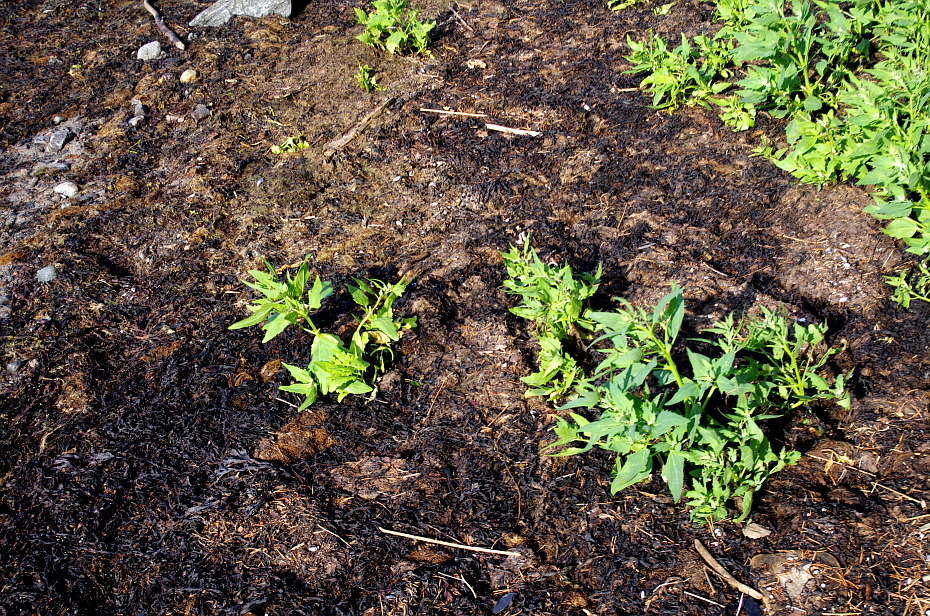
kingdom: Plantae
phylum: Tracheophyta
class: Magnoliopsida
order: Caryophyllales
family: Amaranthaceae
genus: Atriplex
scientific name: Atriplex nudicaulis
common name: Baltic orache
